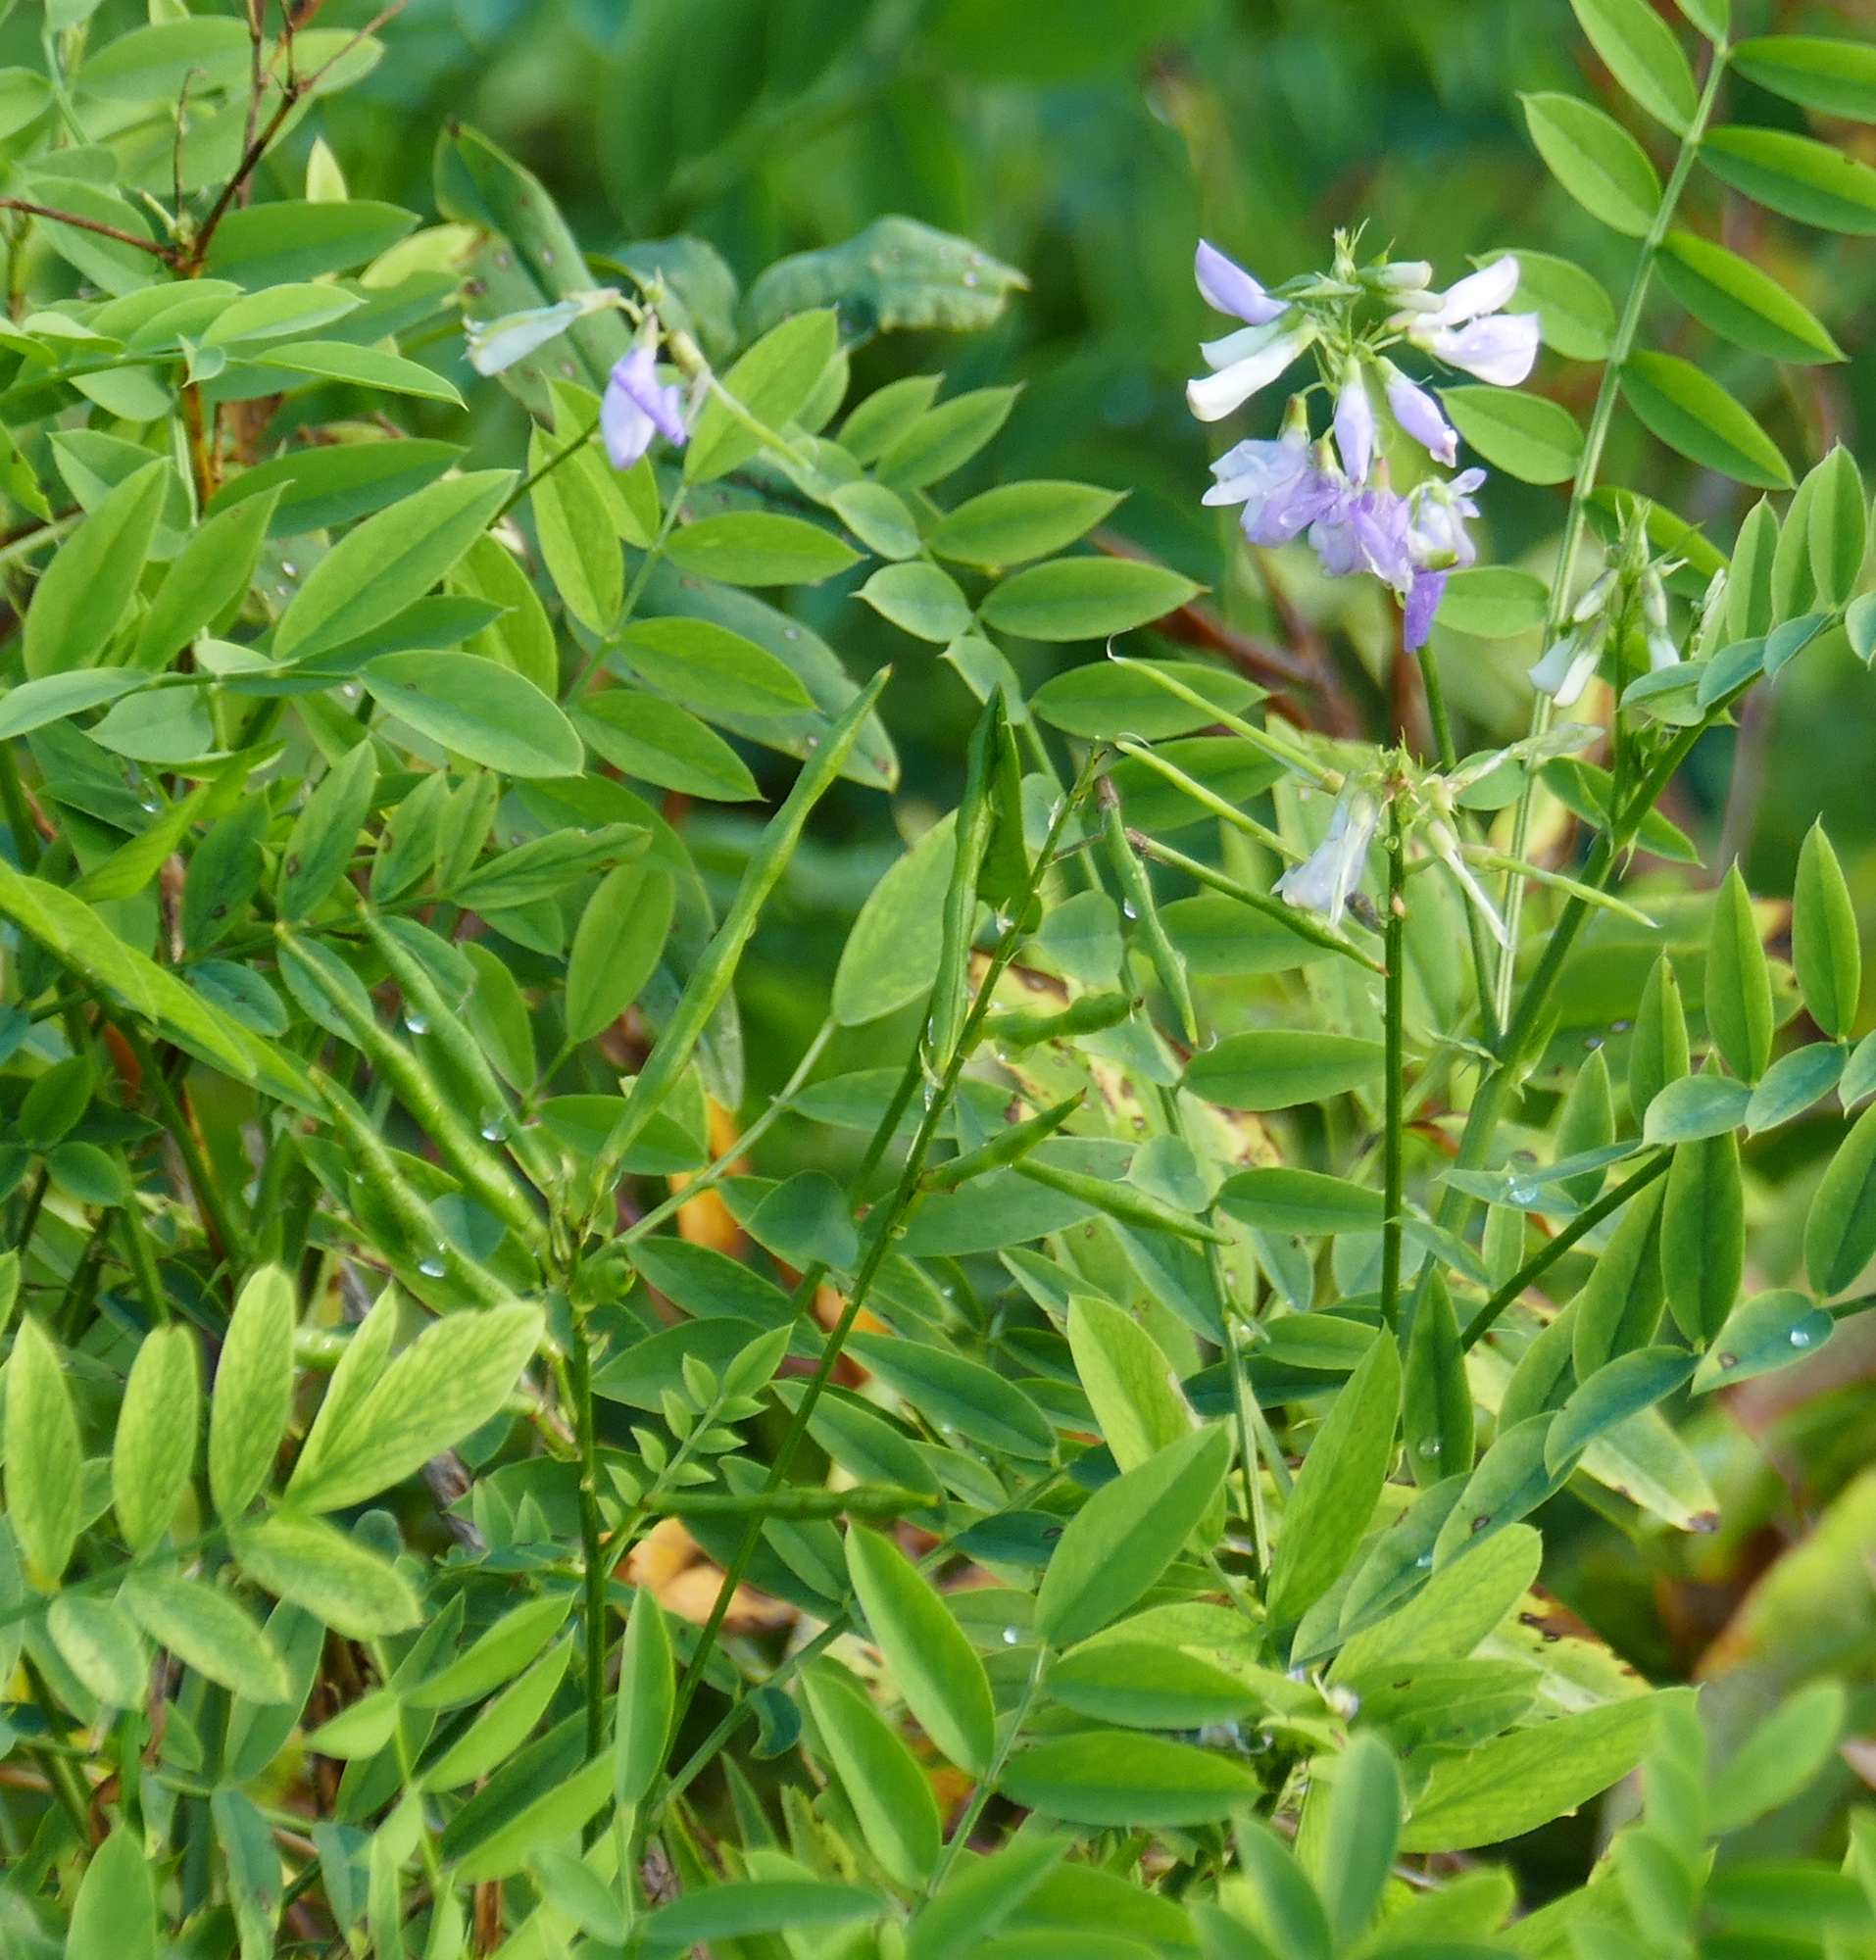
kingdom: Plantae
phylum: Tracheophyta
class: Magnoliopsida
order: Fabales
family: Fabaceae
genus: Galega
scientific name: Galega officinalis
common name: Goat's-rue
